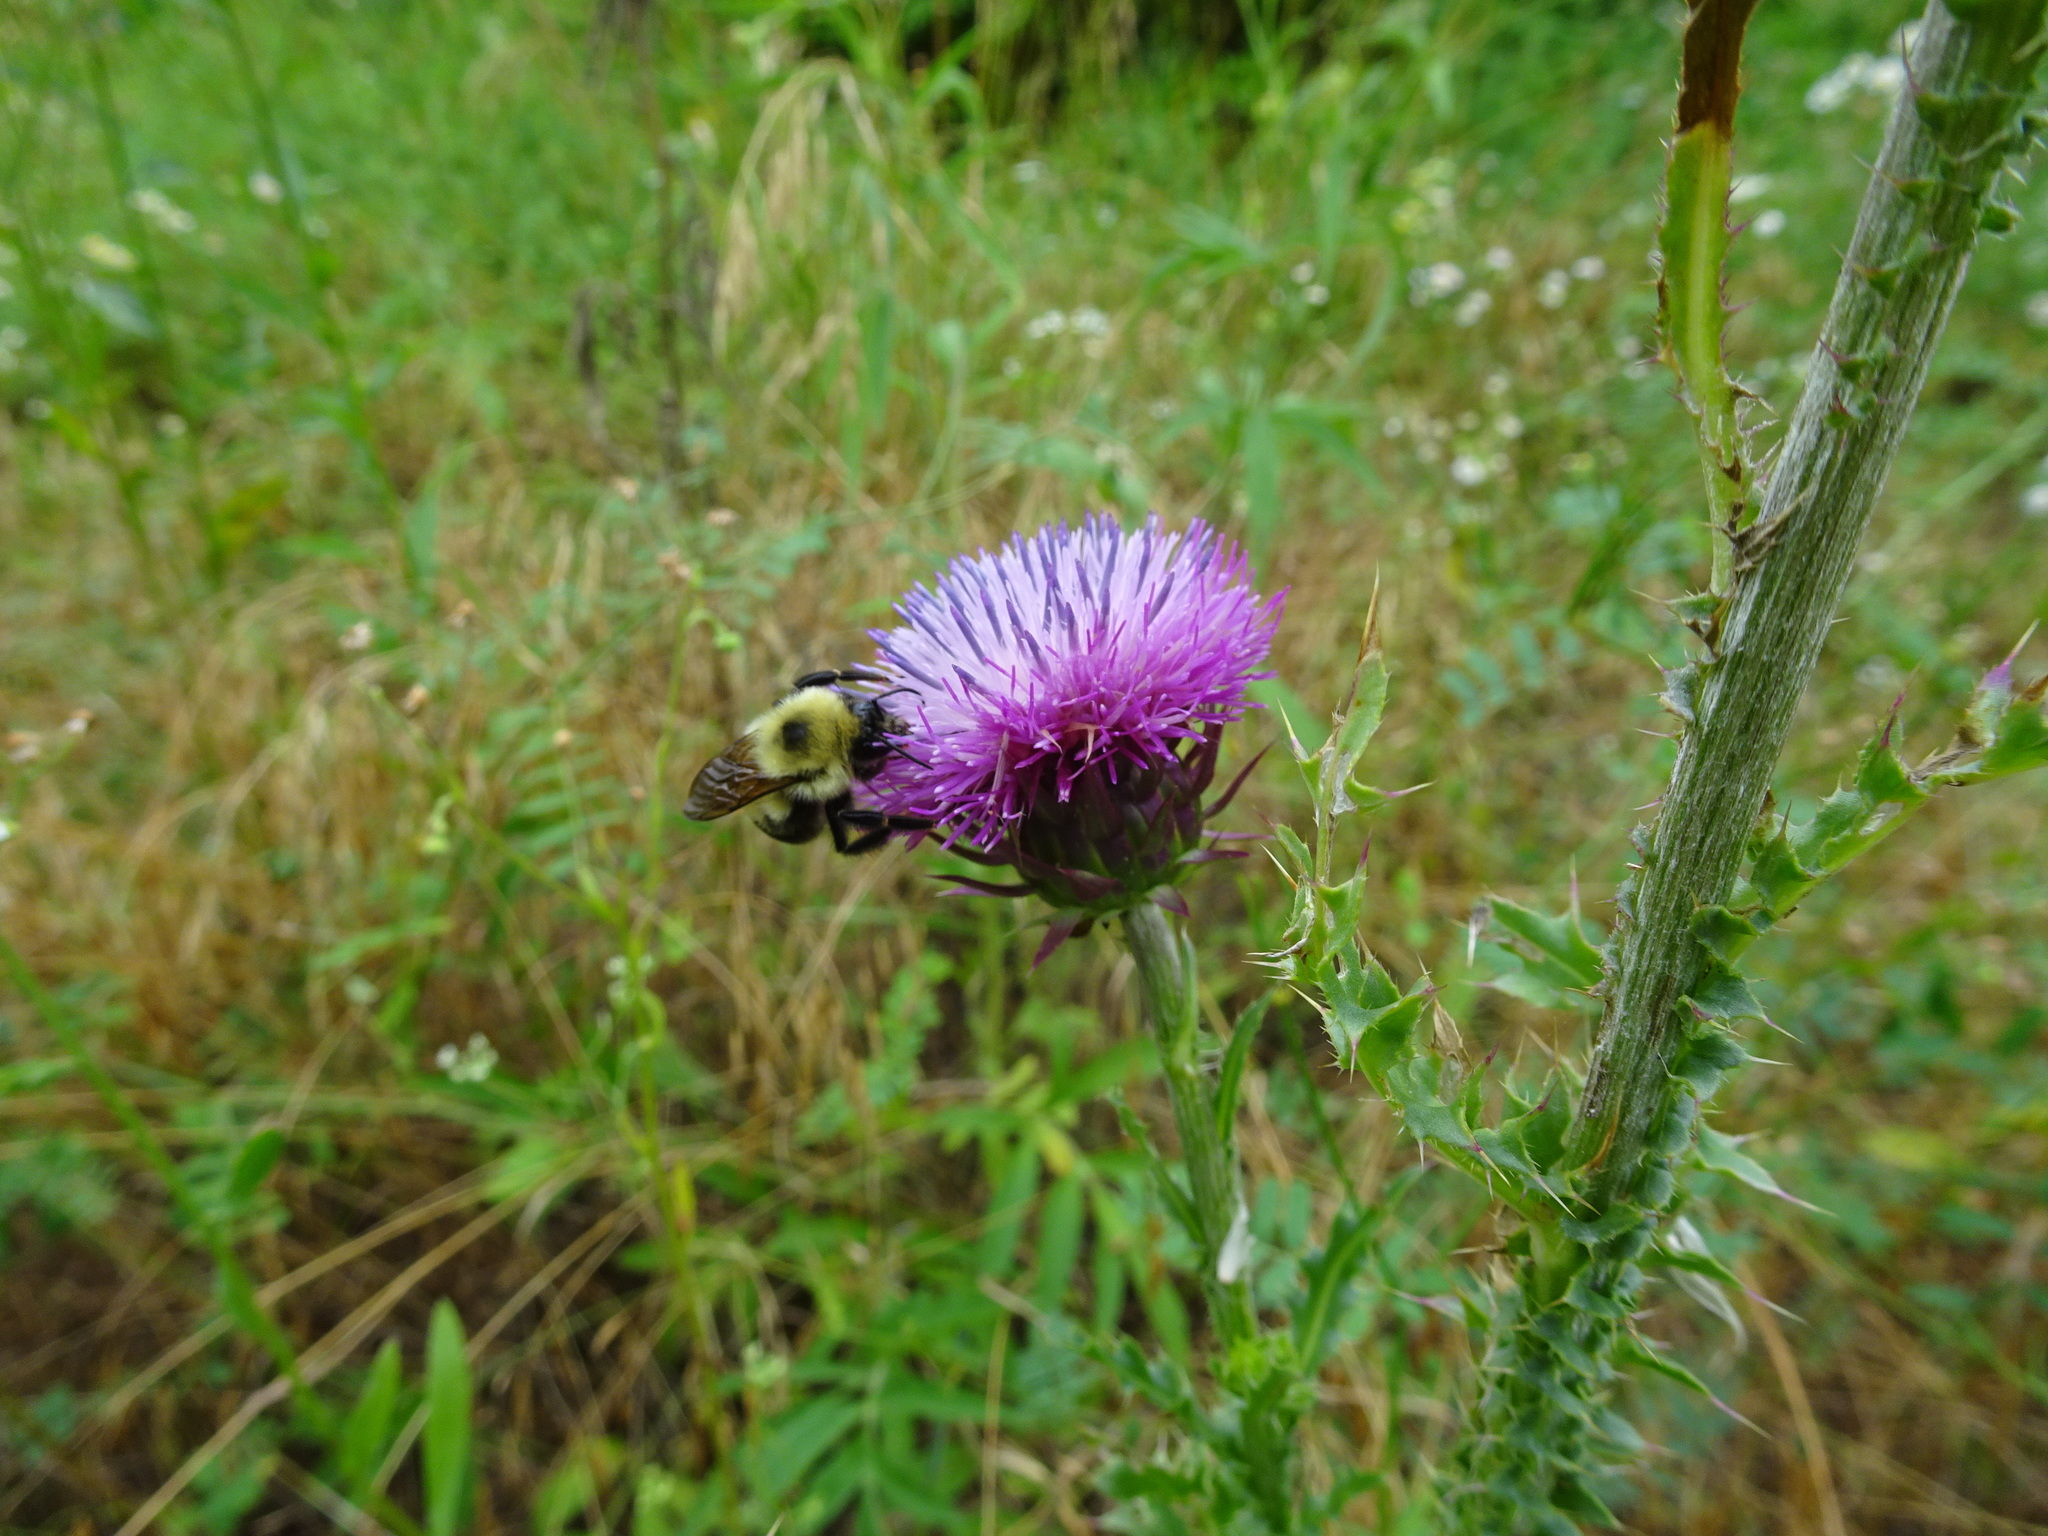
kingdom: Animalia
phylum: Arthropoda
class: Insecta
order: Hymenoptera
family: Apidae
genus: Bombus
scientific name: Bombus bimaculatus
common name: Two-spotted bumble bee
